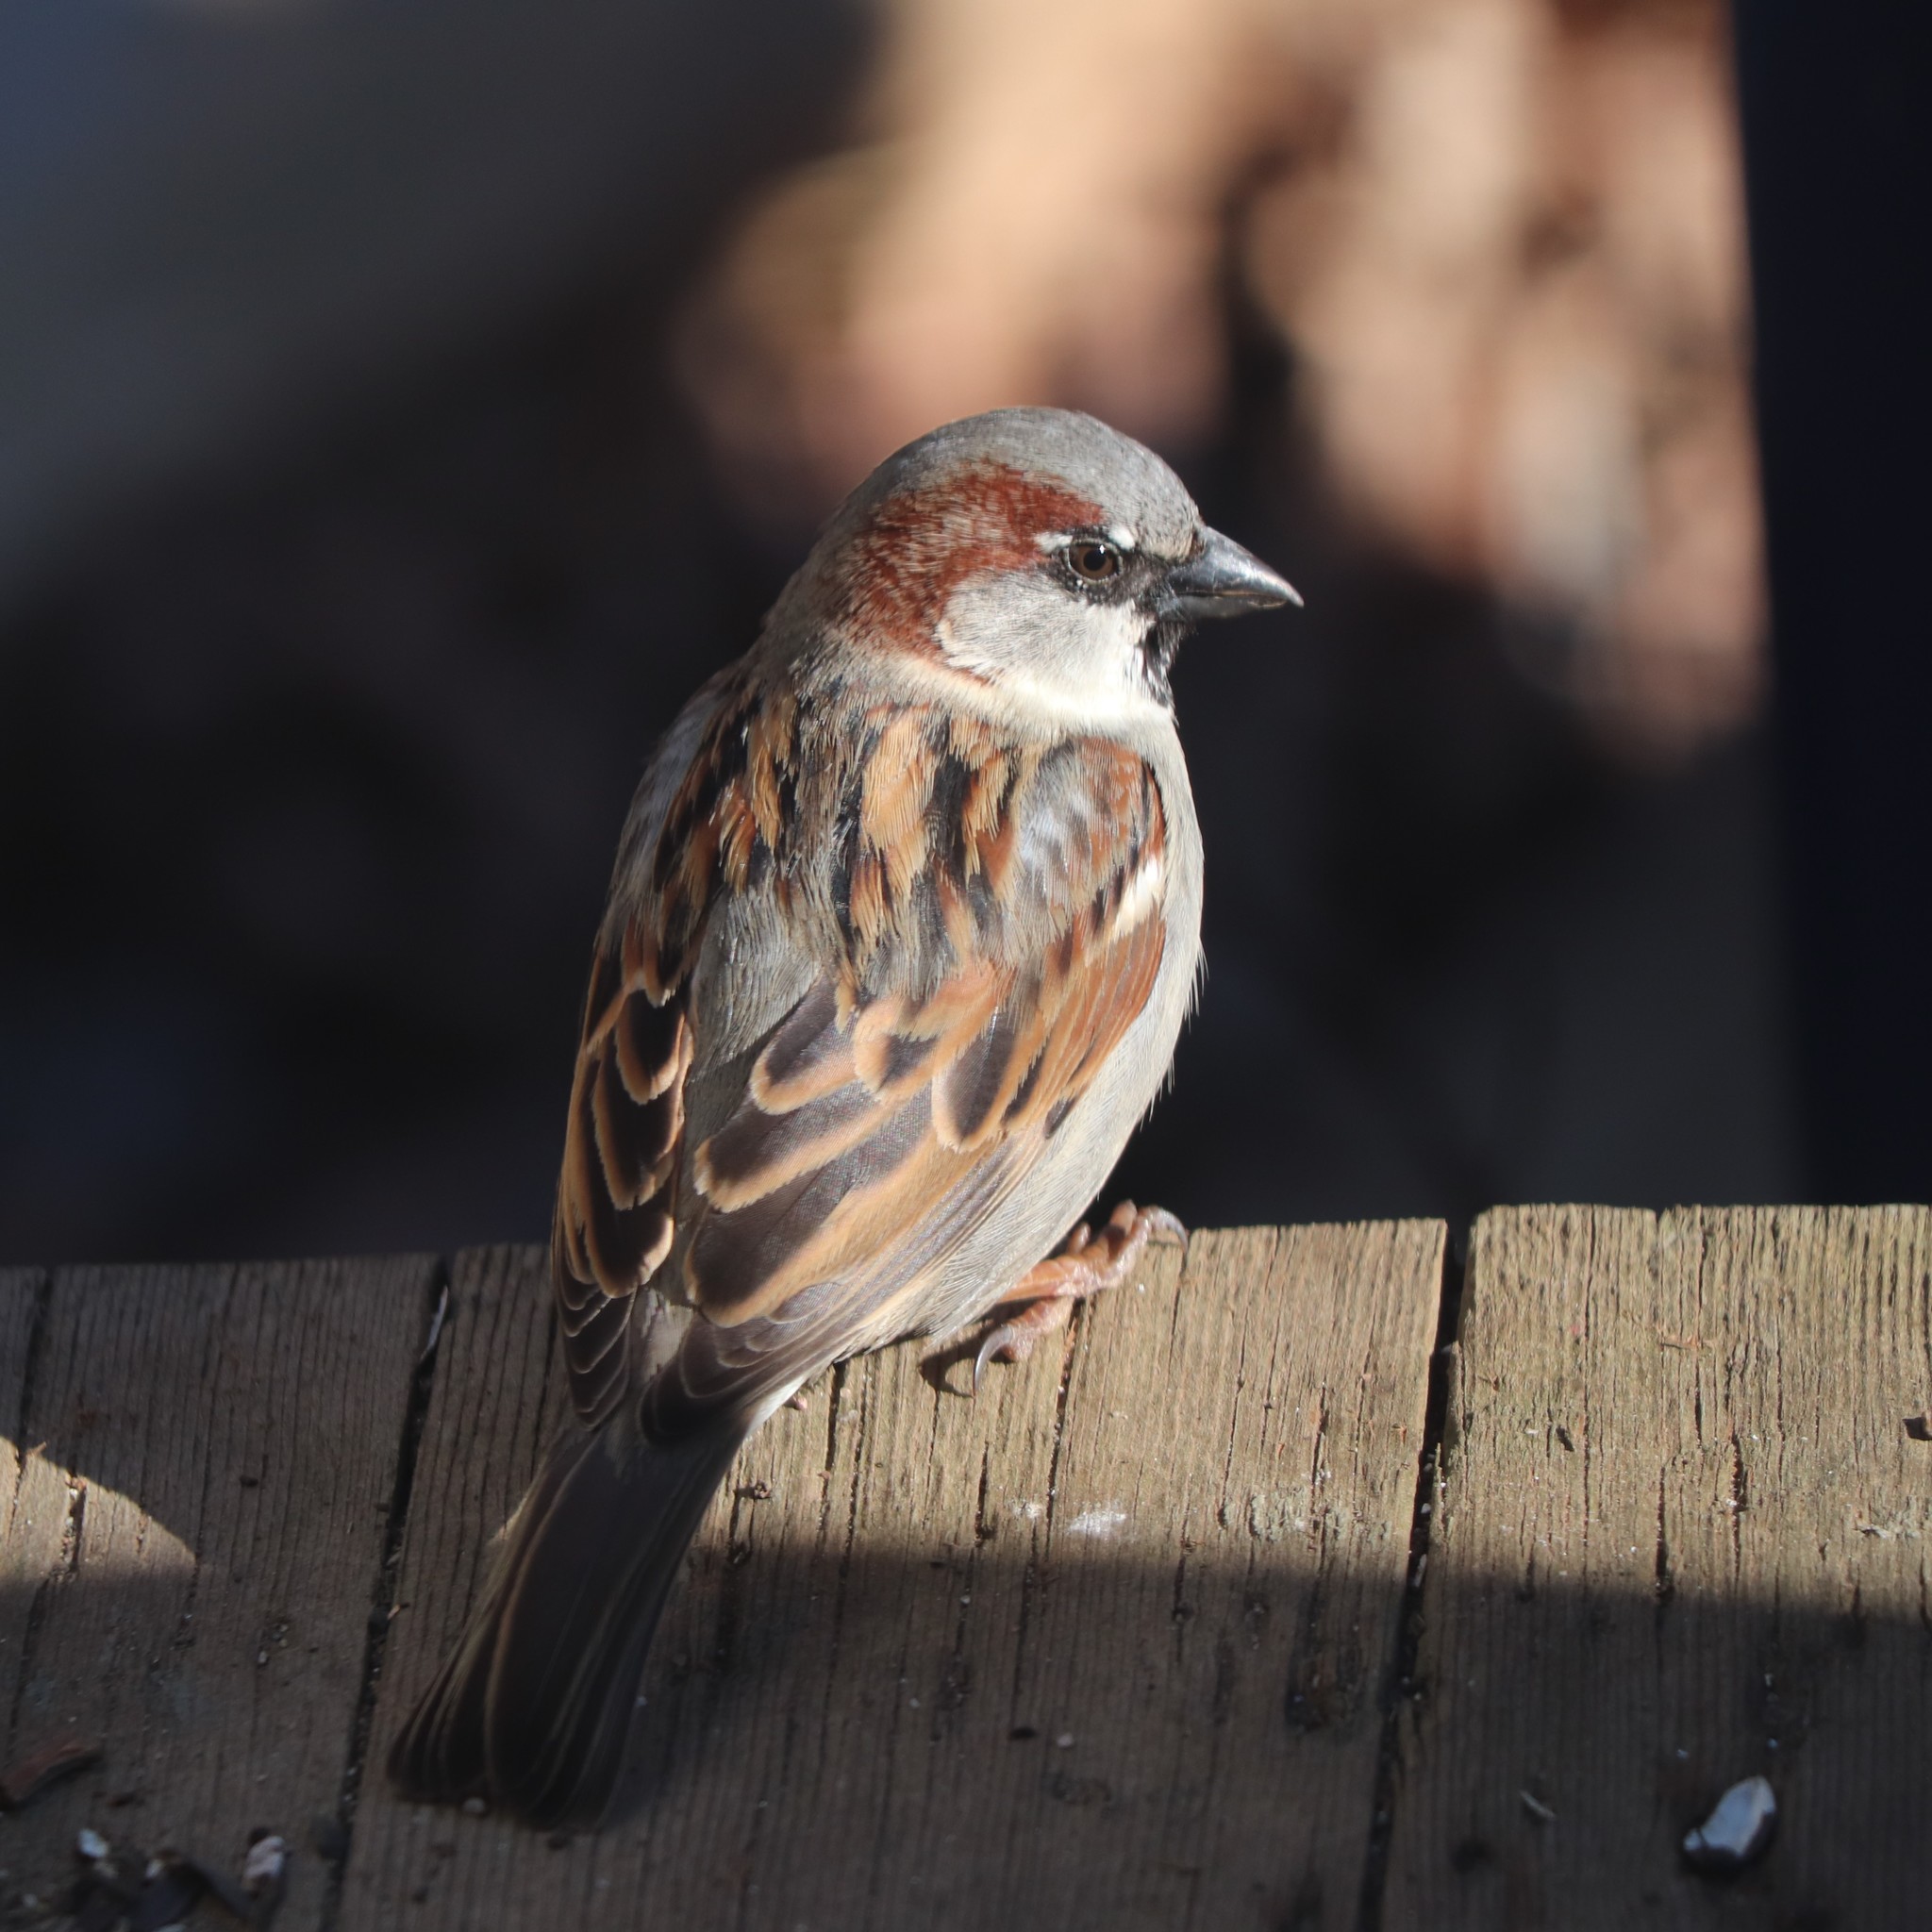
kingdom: Animalia
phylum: Chordata
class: Aves
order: Passeriformes
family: Passeridae
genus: Passer
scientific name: Passer domesticus
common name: House sparrow
